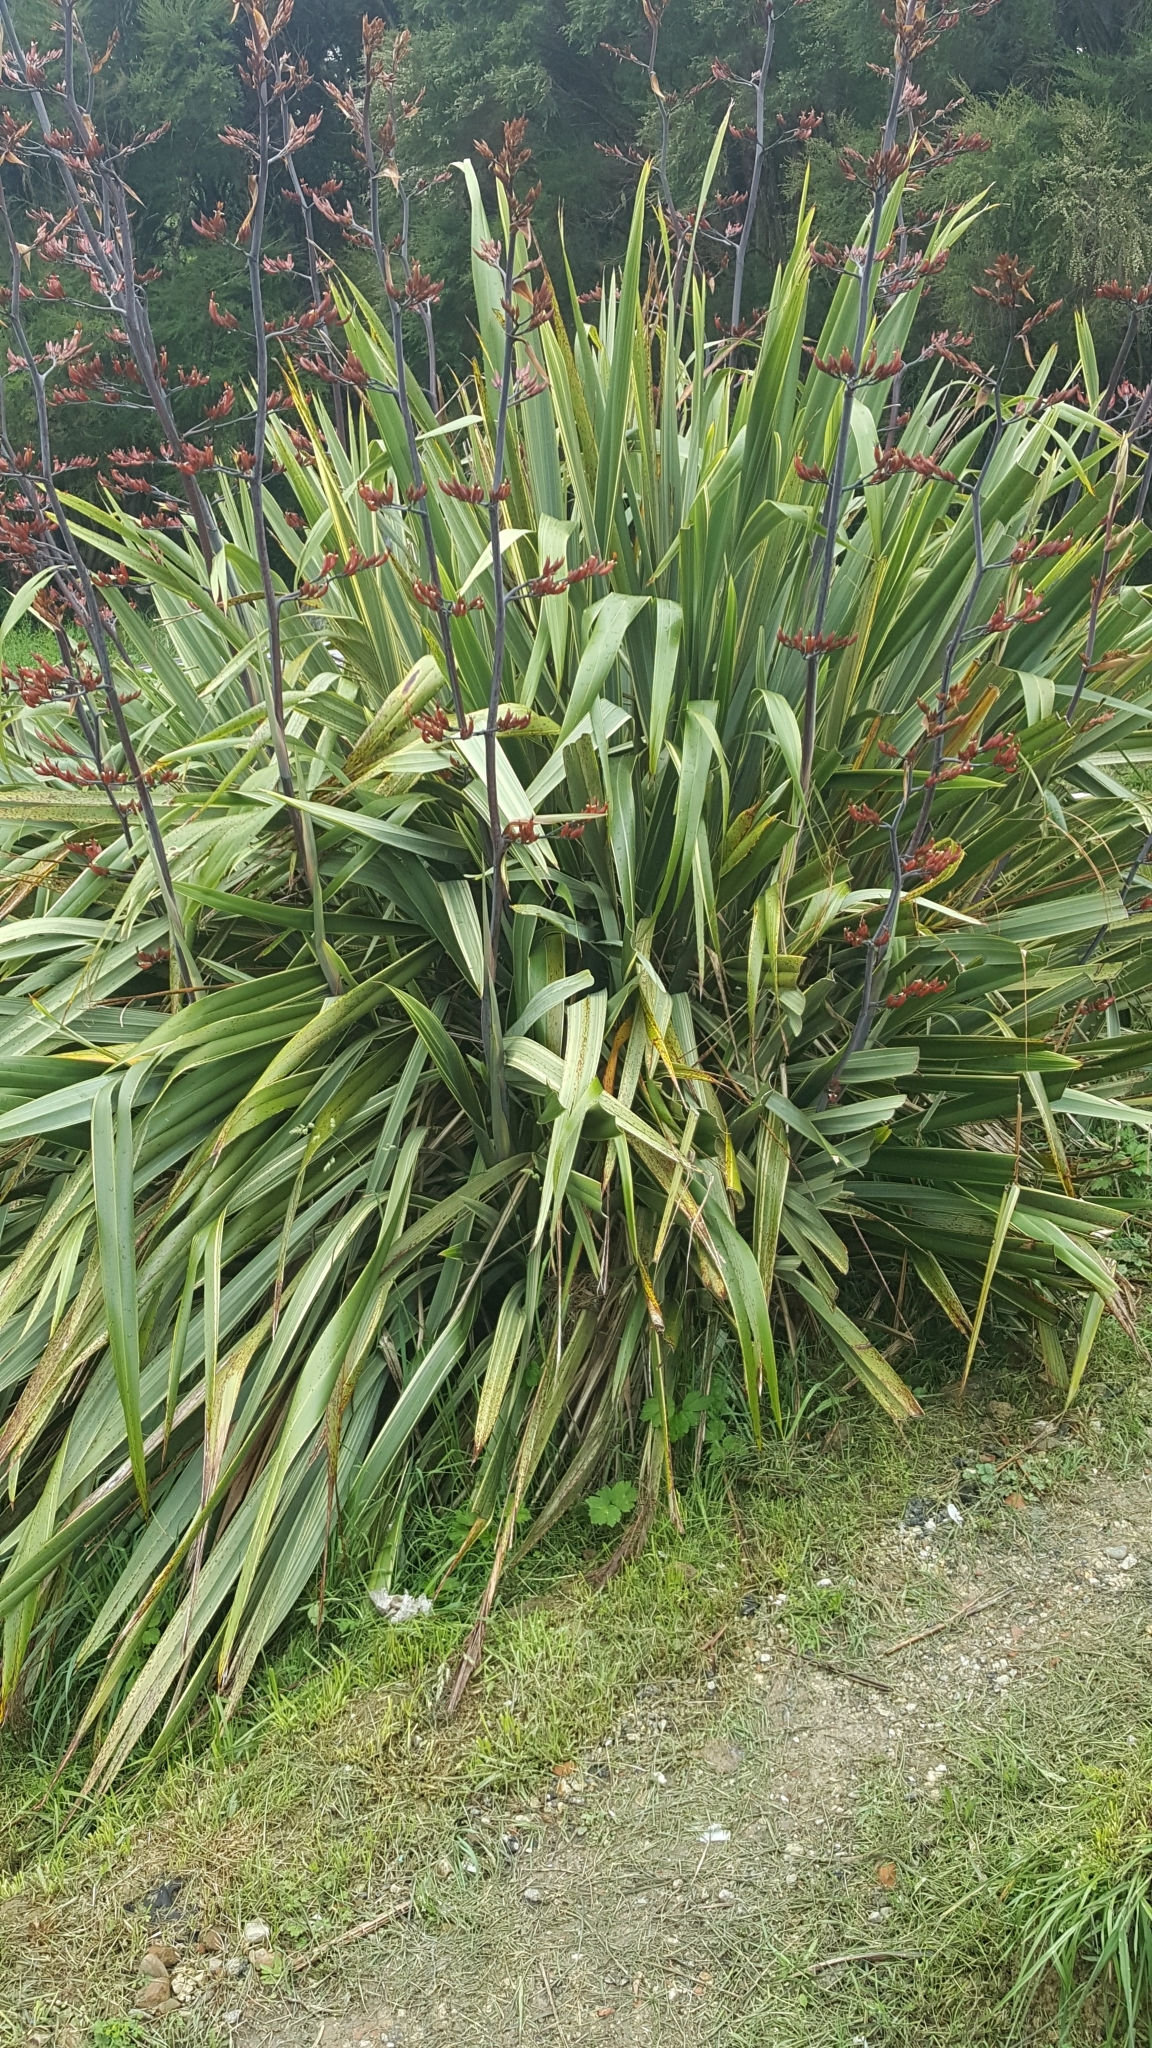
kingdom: Plantae
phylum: Tracheophyta
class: Liliopsida
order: Asparagales
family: Asphodelaceae
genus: Phormium
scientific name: Phormium tenax
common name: New zealand flax
